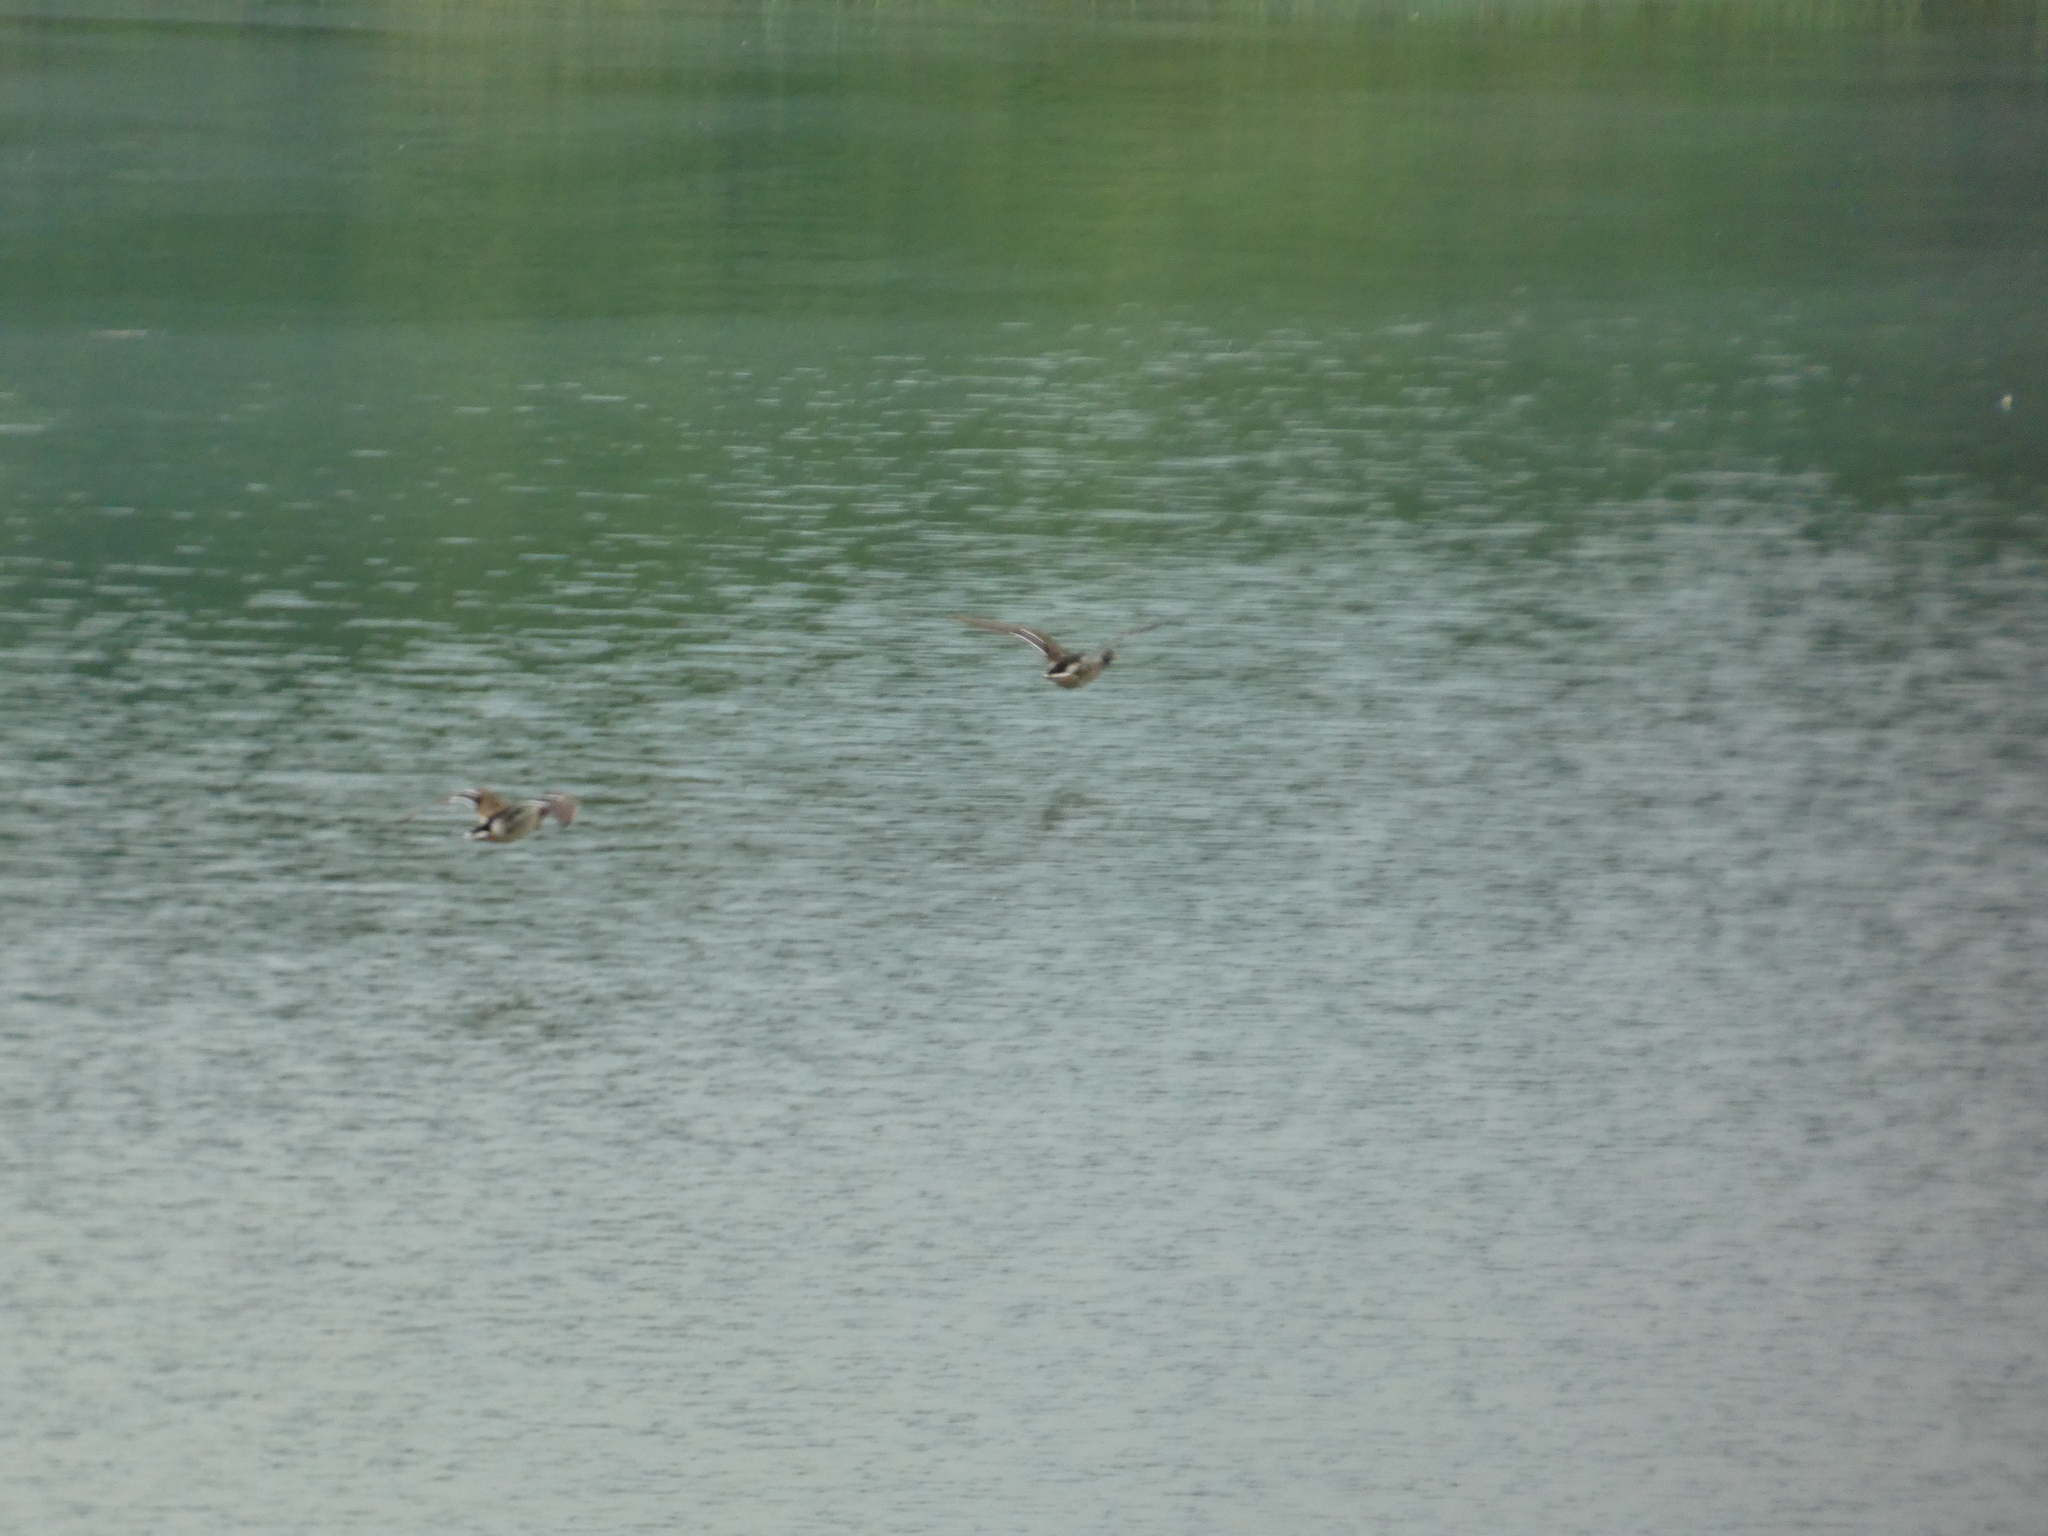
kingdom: Animalia
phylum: Chordata
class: Aves
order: Anseriformes
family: Anatidae
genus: Anas
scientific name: Anas platyrhynchos
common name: Mallard
